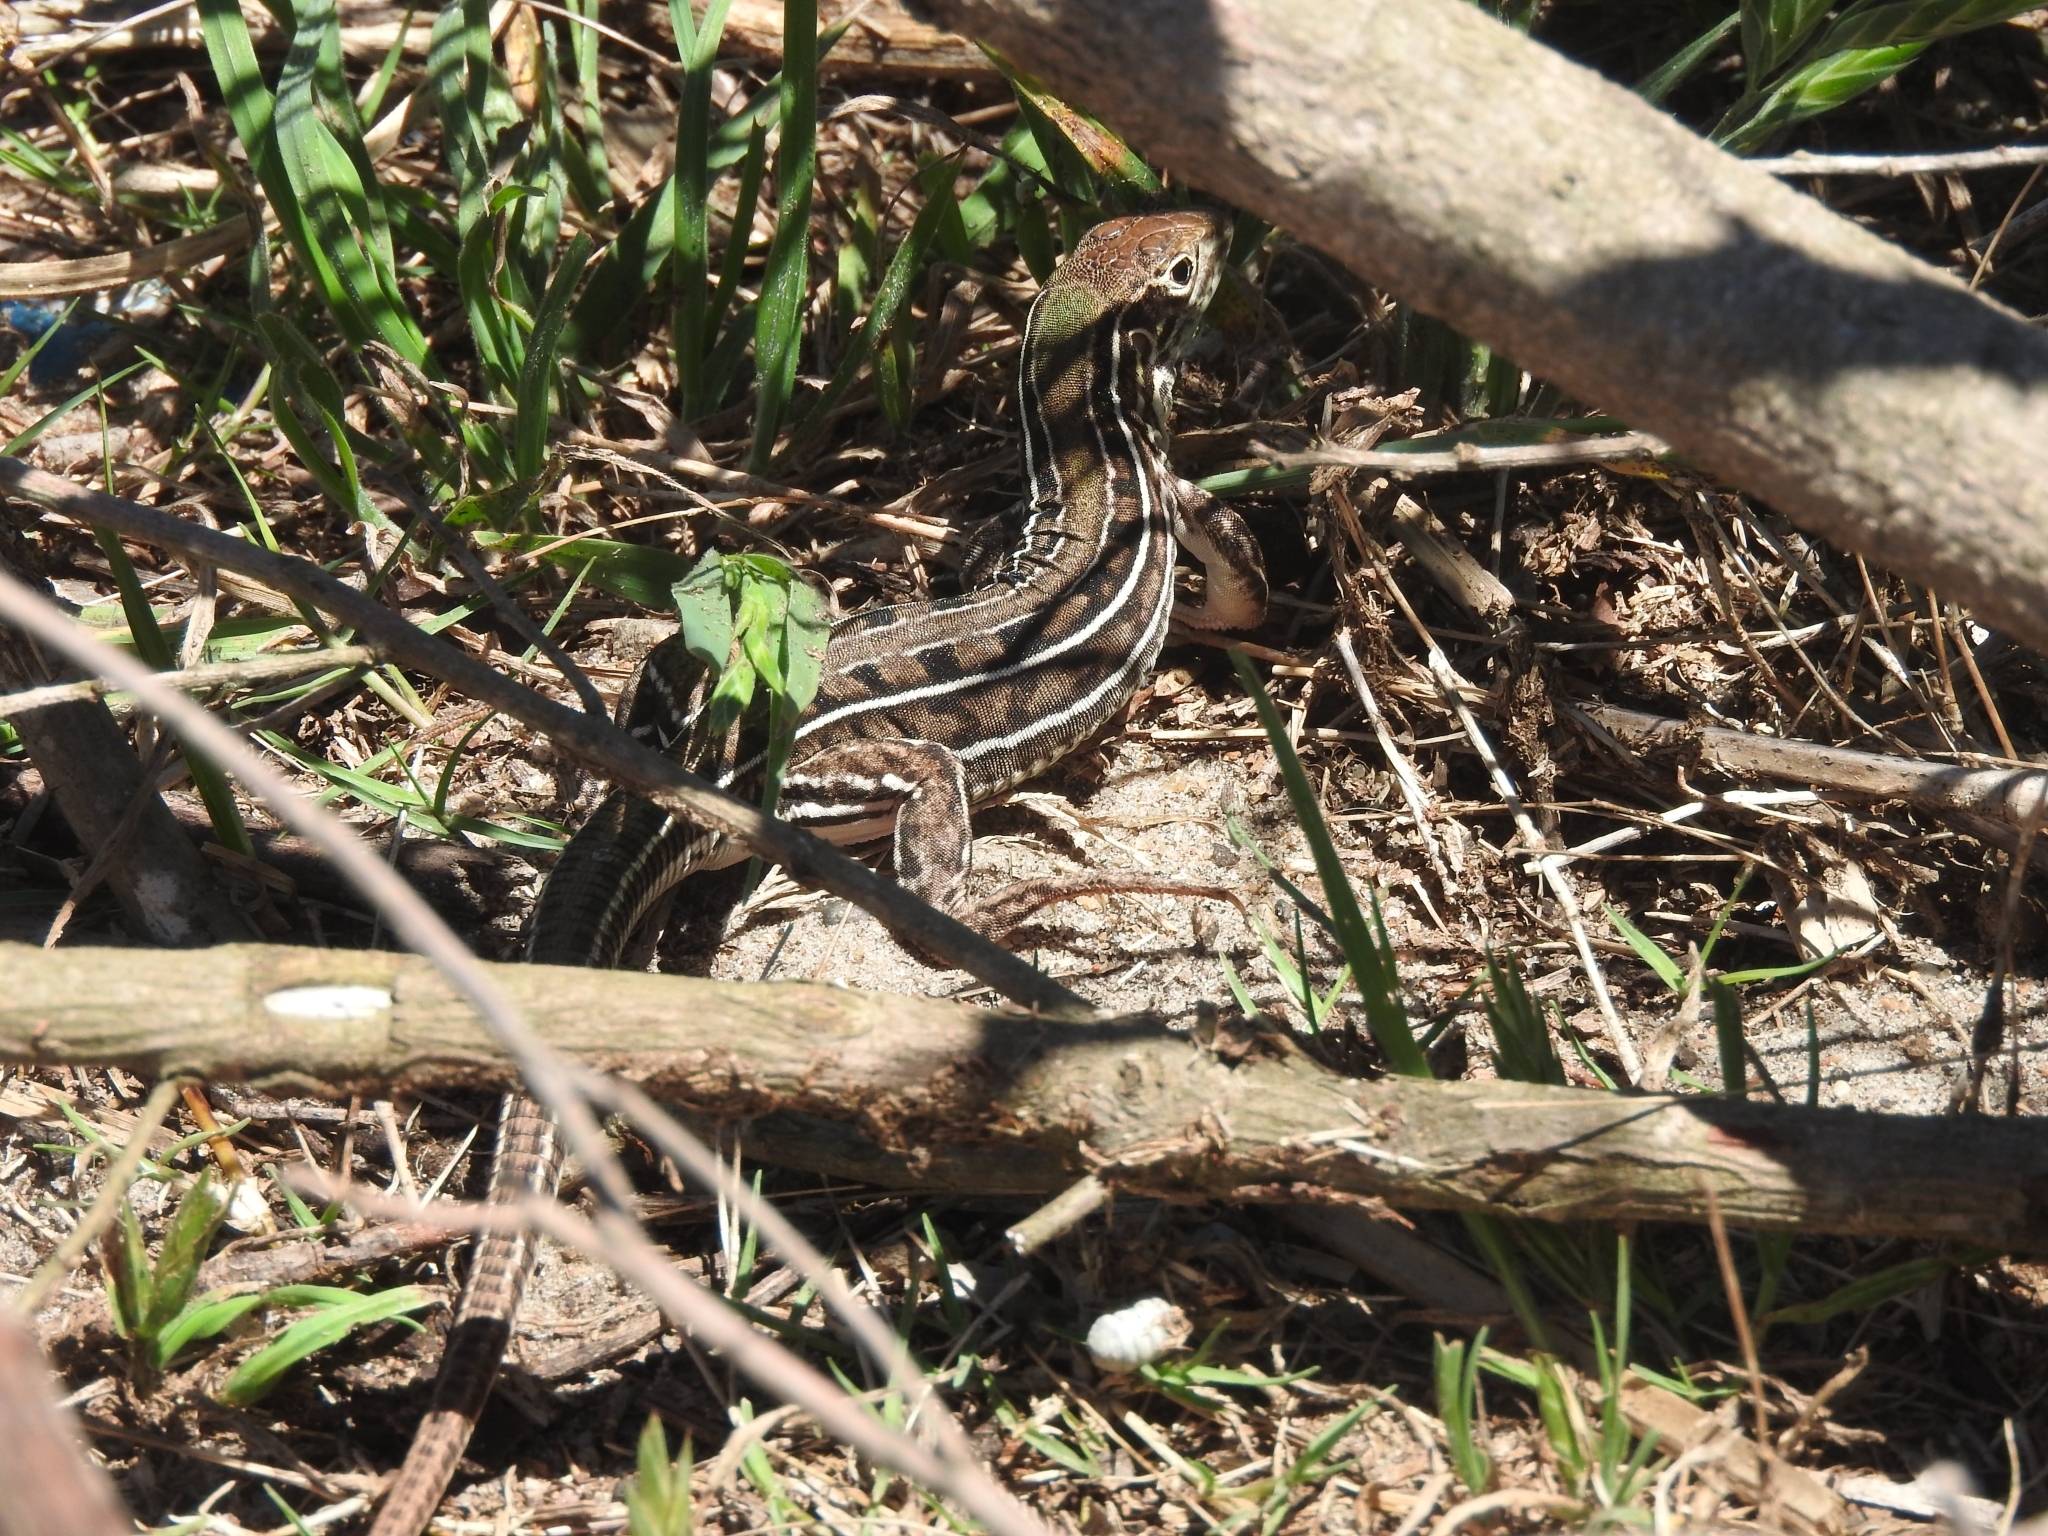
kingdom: Animalia
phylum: Chordata
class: Squamata
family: Teiidae
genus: Teius
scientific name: Teius oculatus
